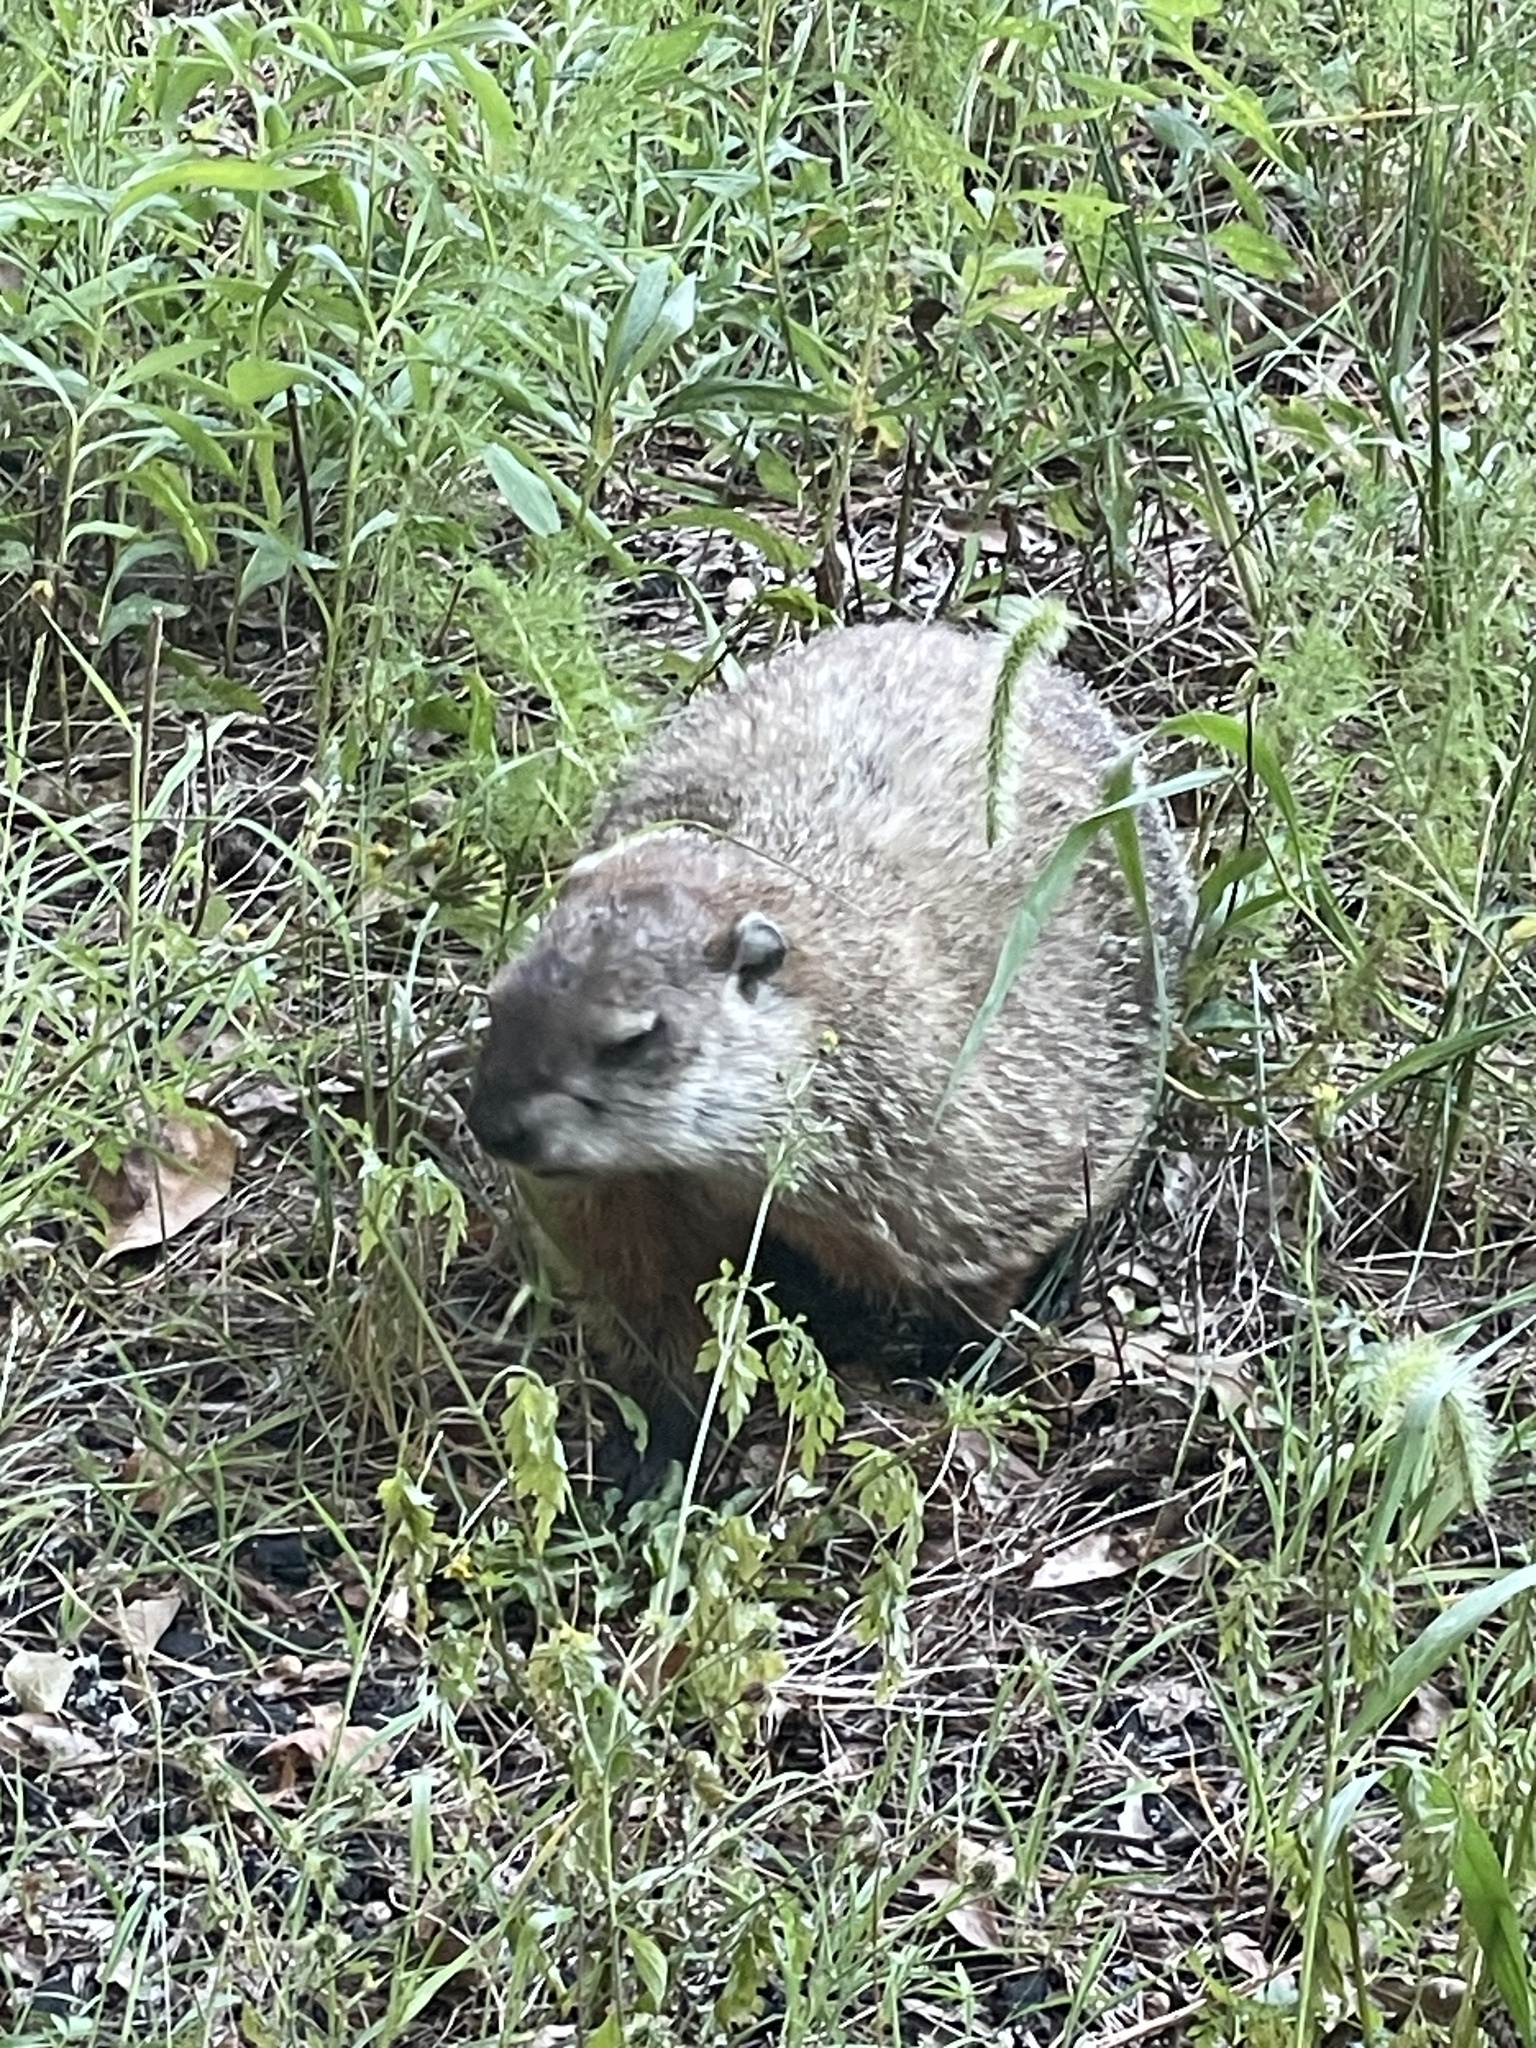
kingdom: Animalia
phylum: Chordata
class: Mammalia
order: Rodentia
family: Sciuridae
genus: Marmota
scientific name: Marmota monax
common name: Groundhog
